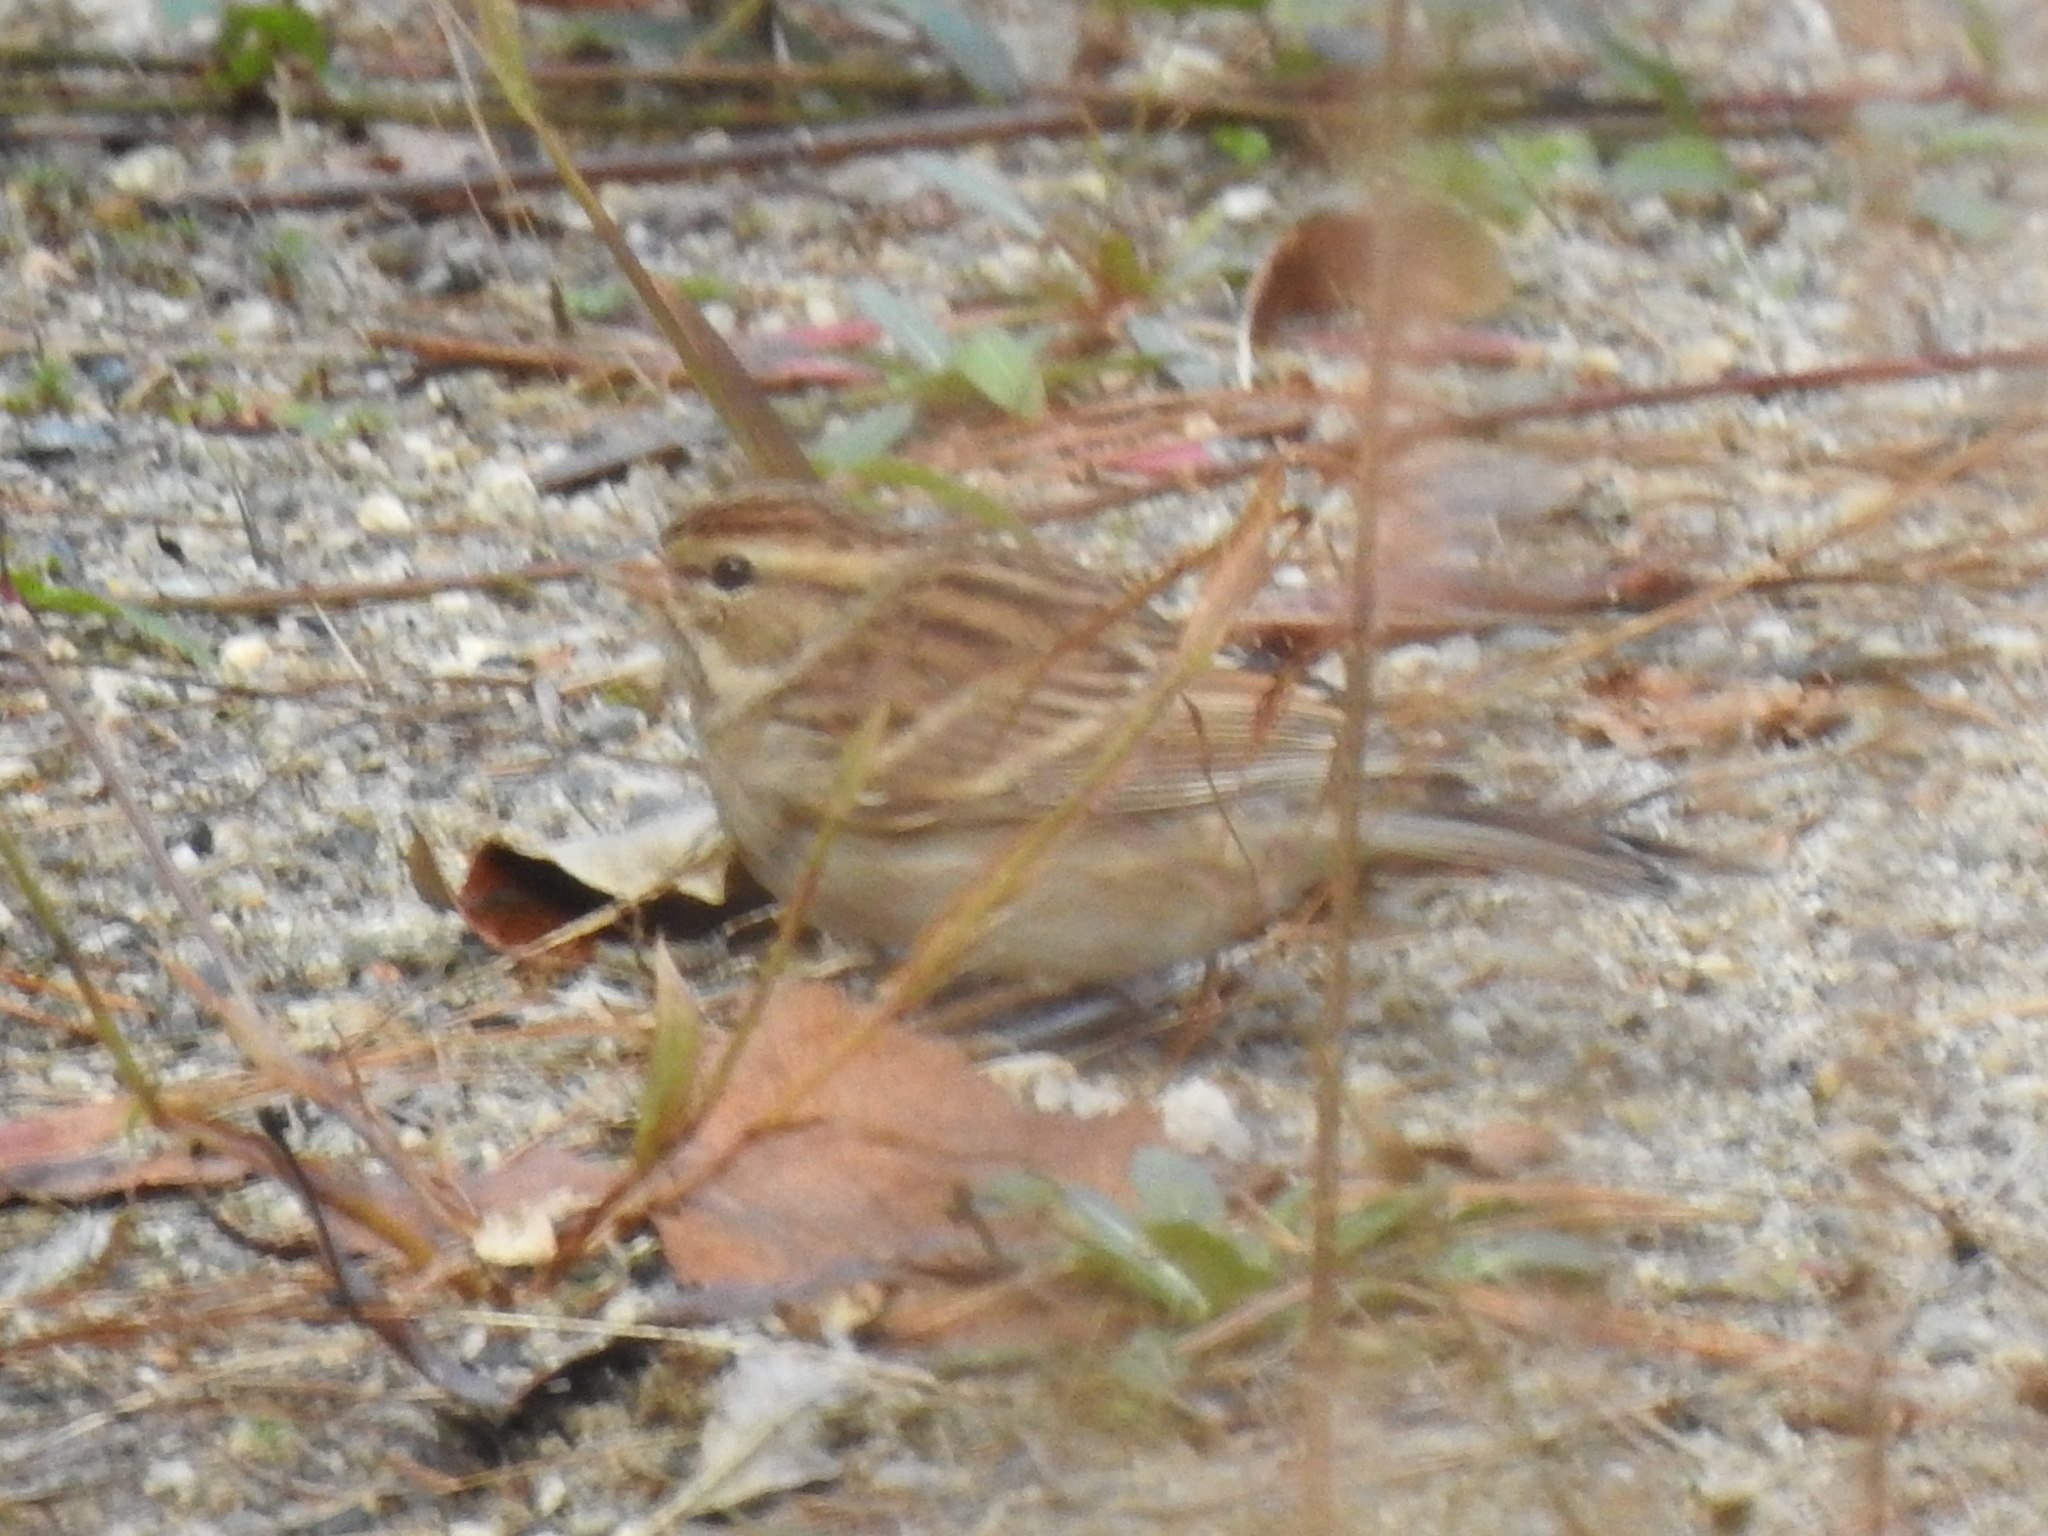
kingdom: Animalia
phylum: Chordata
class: Aves
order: Passeriformes
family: Passerellidae
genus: Spizella
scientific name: Spizella passerina
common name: Chipping sparrow
